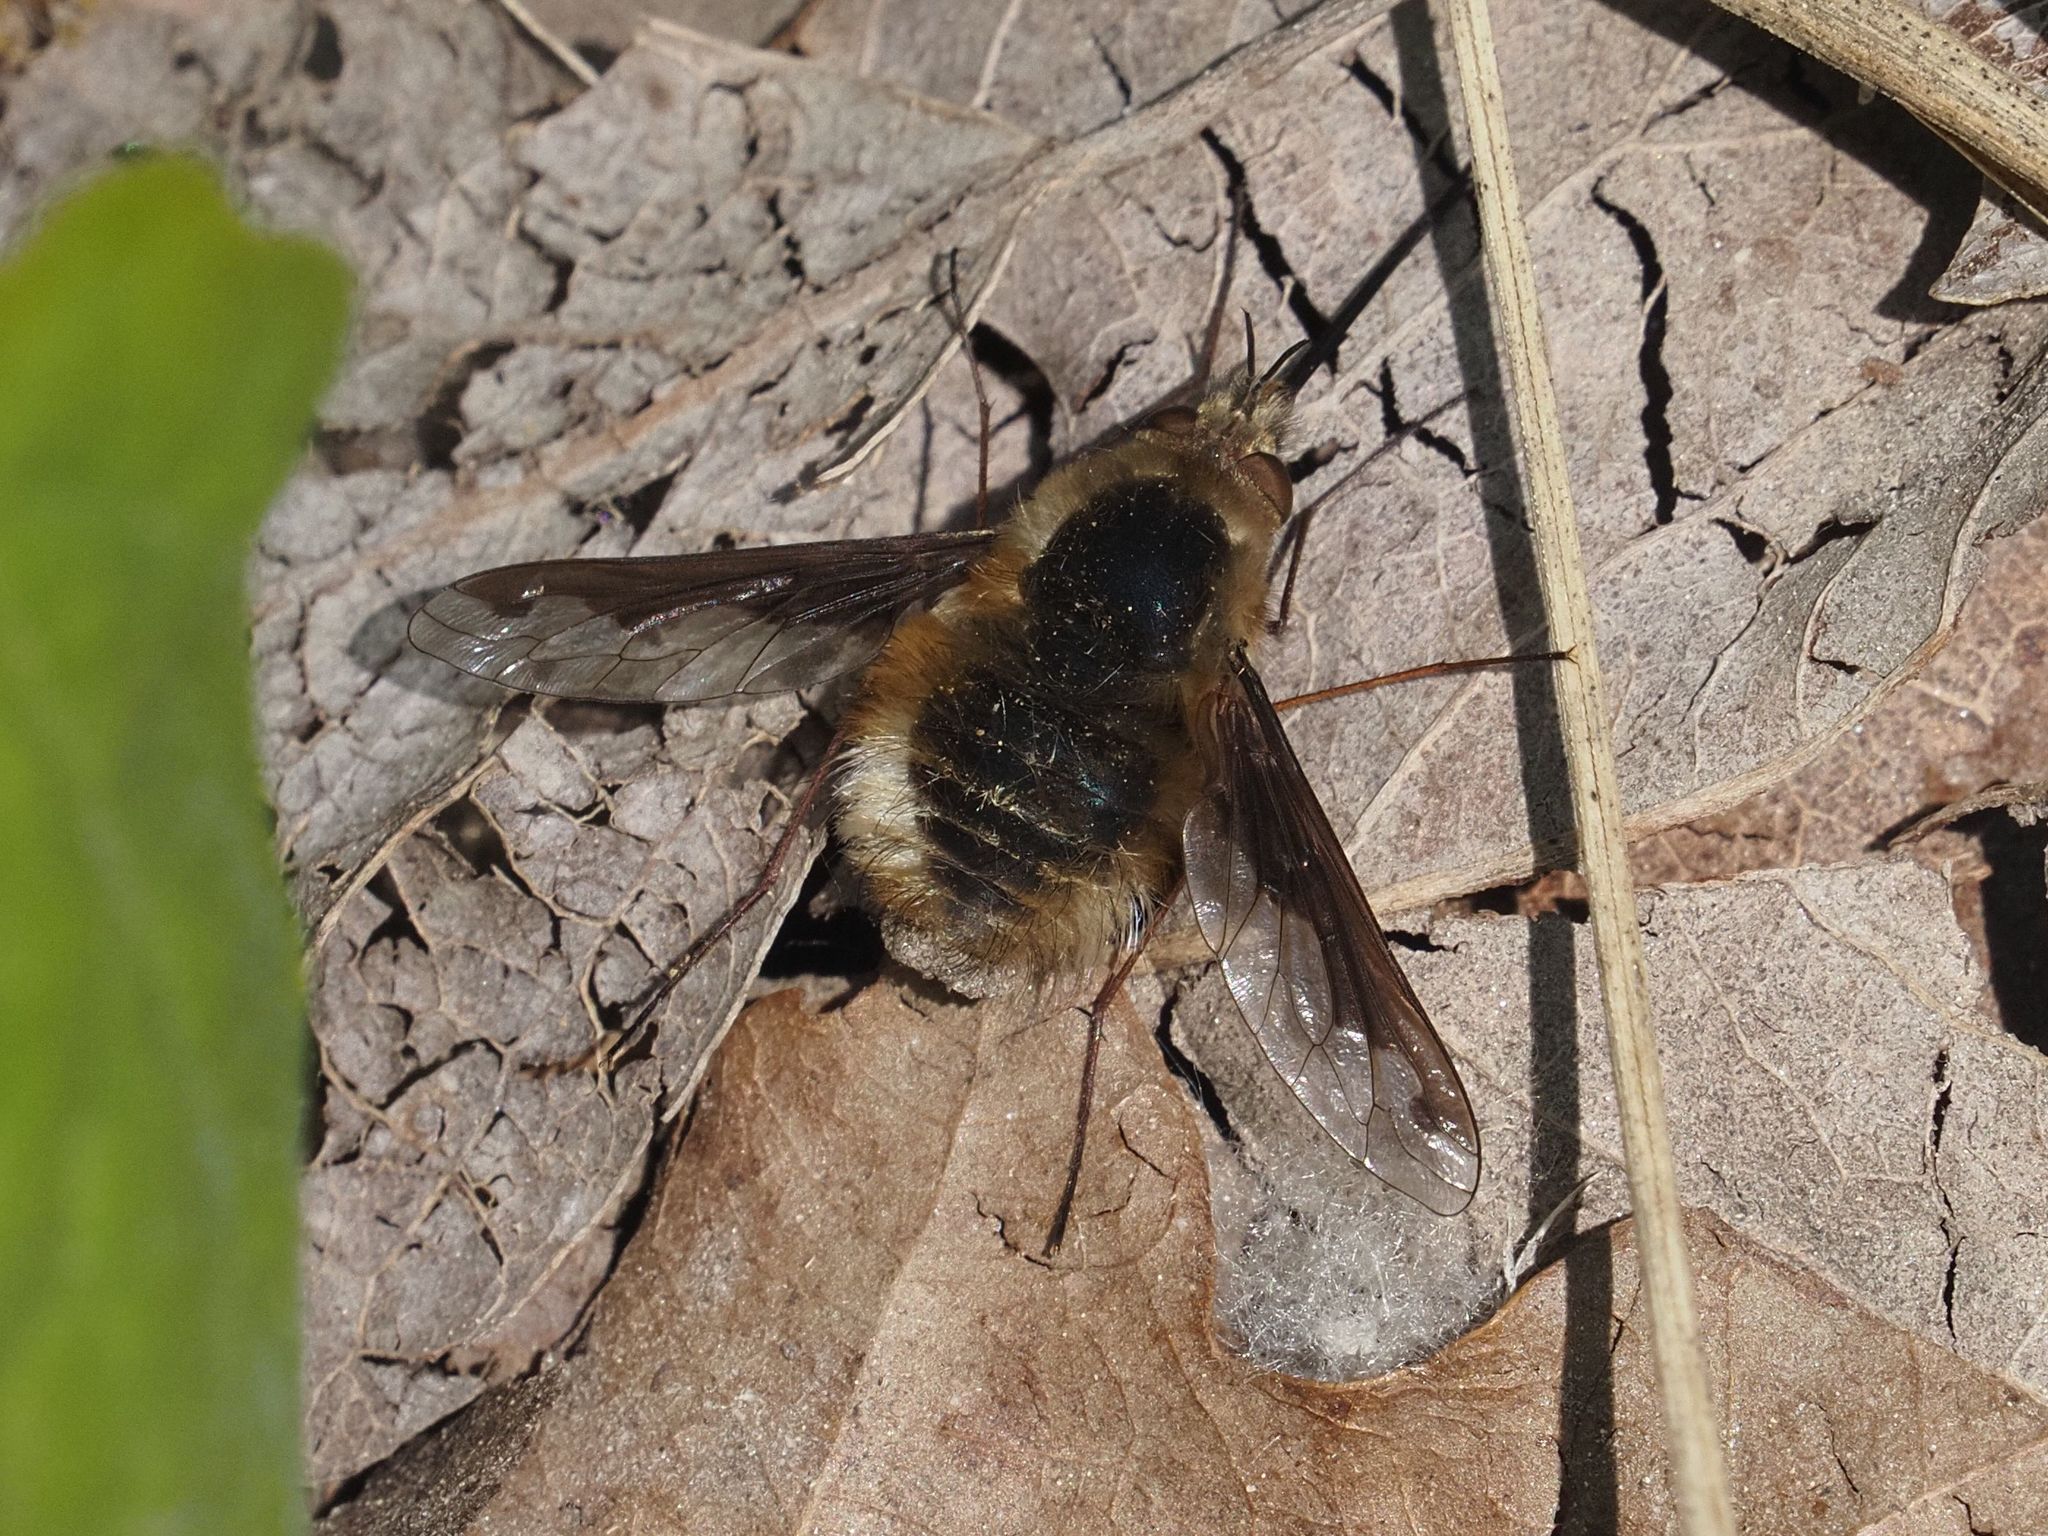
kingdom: Animalia
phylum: Arthropoda
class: Insecta
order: Diptera
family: Bombyliidae
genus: Bombylius
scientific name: Bombylius major
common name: Bee fly
